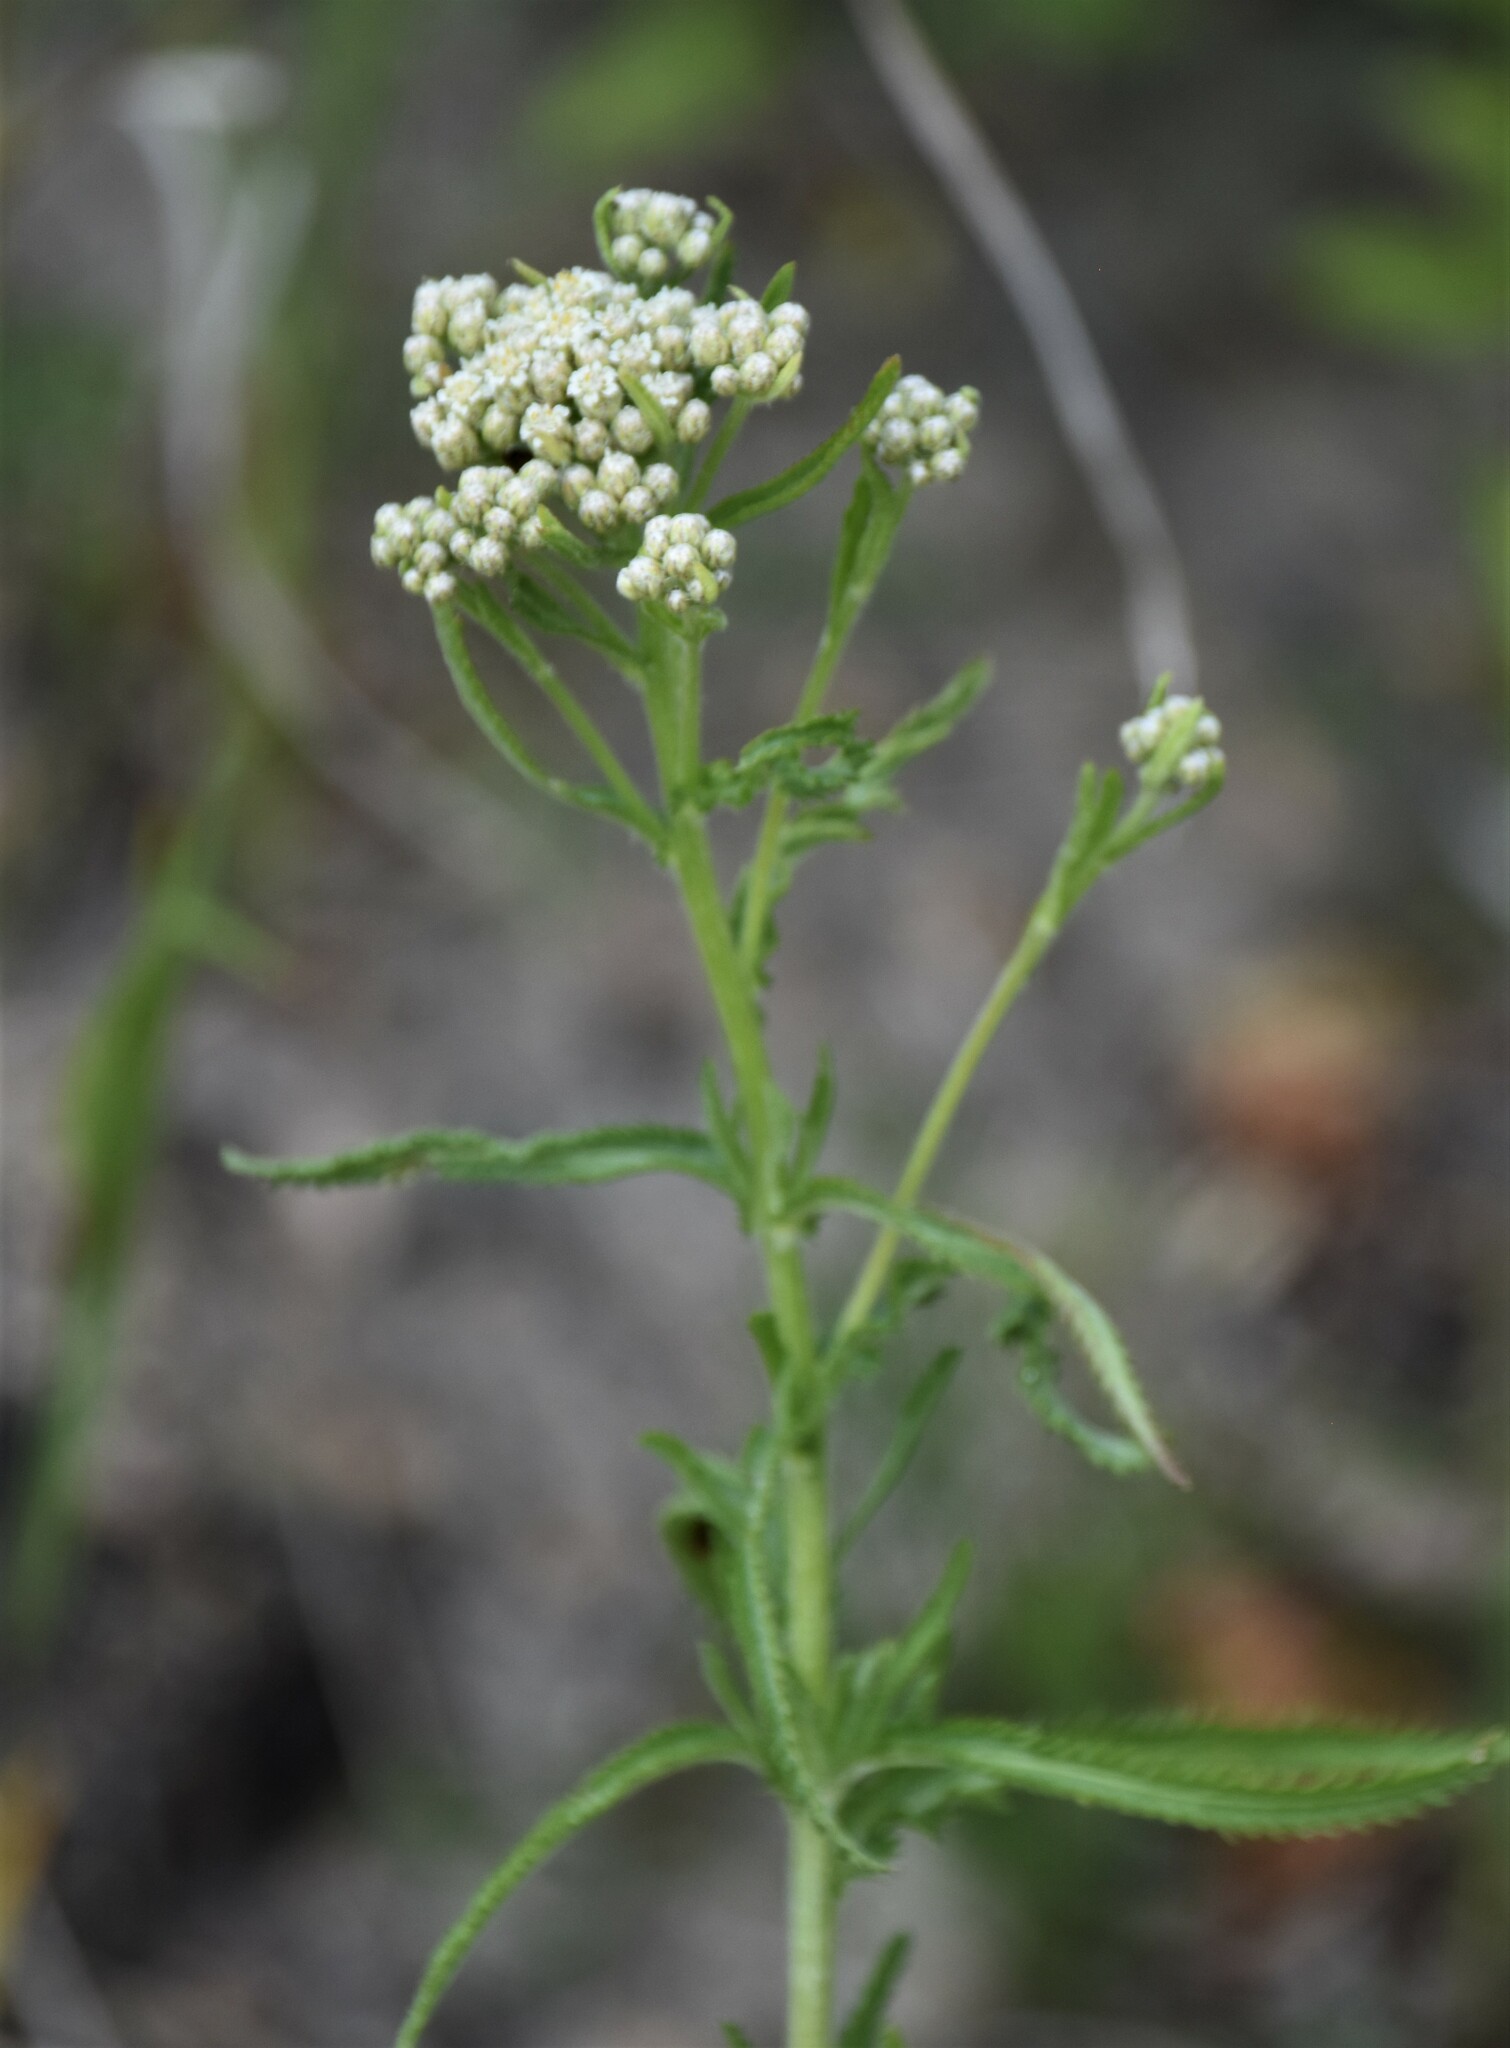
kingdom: Plantae
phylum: Tracheophyta
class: Magnoliopsida
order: Asterales
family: Asteraceae
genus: Achillea
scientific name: Achillea alpina
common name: Siberian yarrow
